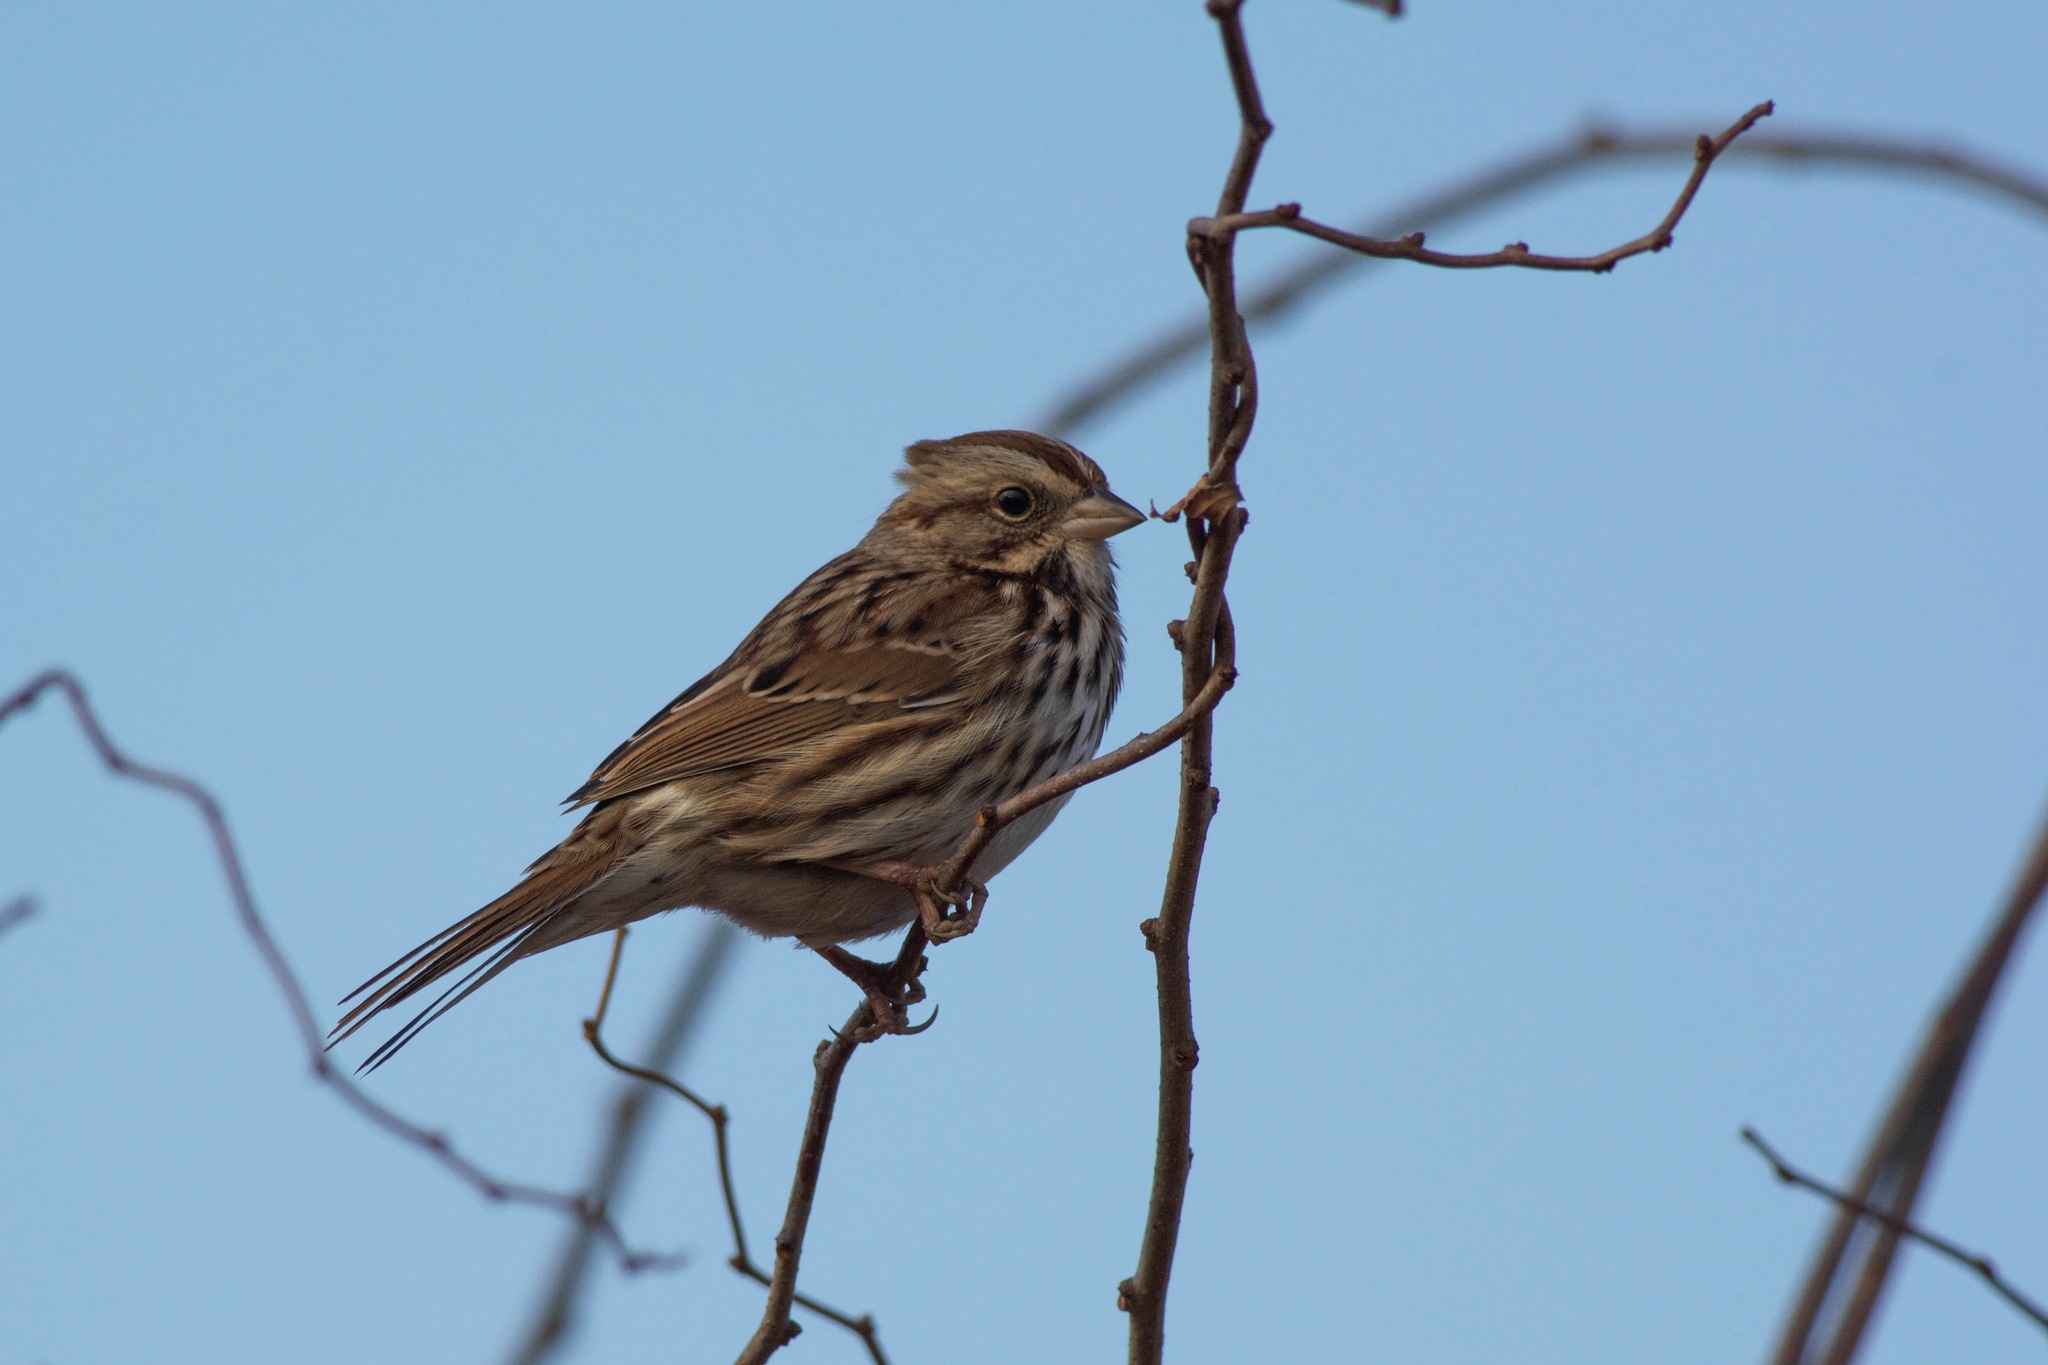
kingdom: Animalia
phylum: Chordata
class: Aves
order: Passeriformes
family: Passerellidae
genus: Melospiza
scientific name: Melospiza melodia
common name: Song sparrow
